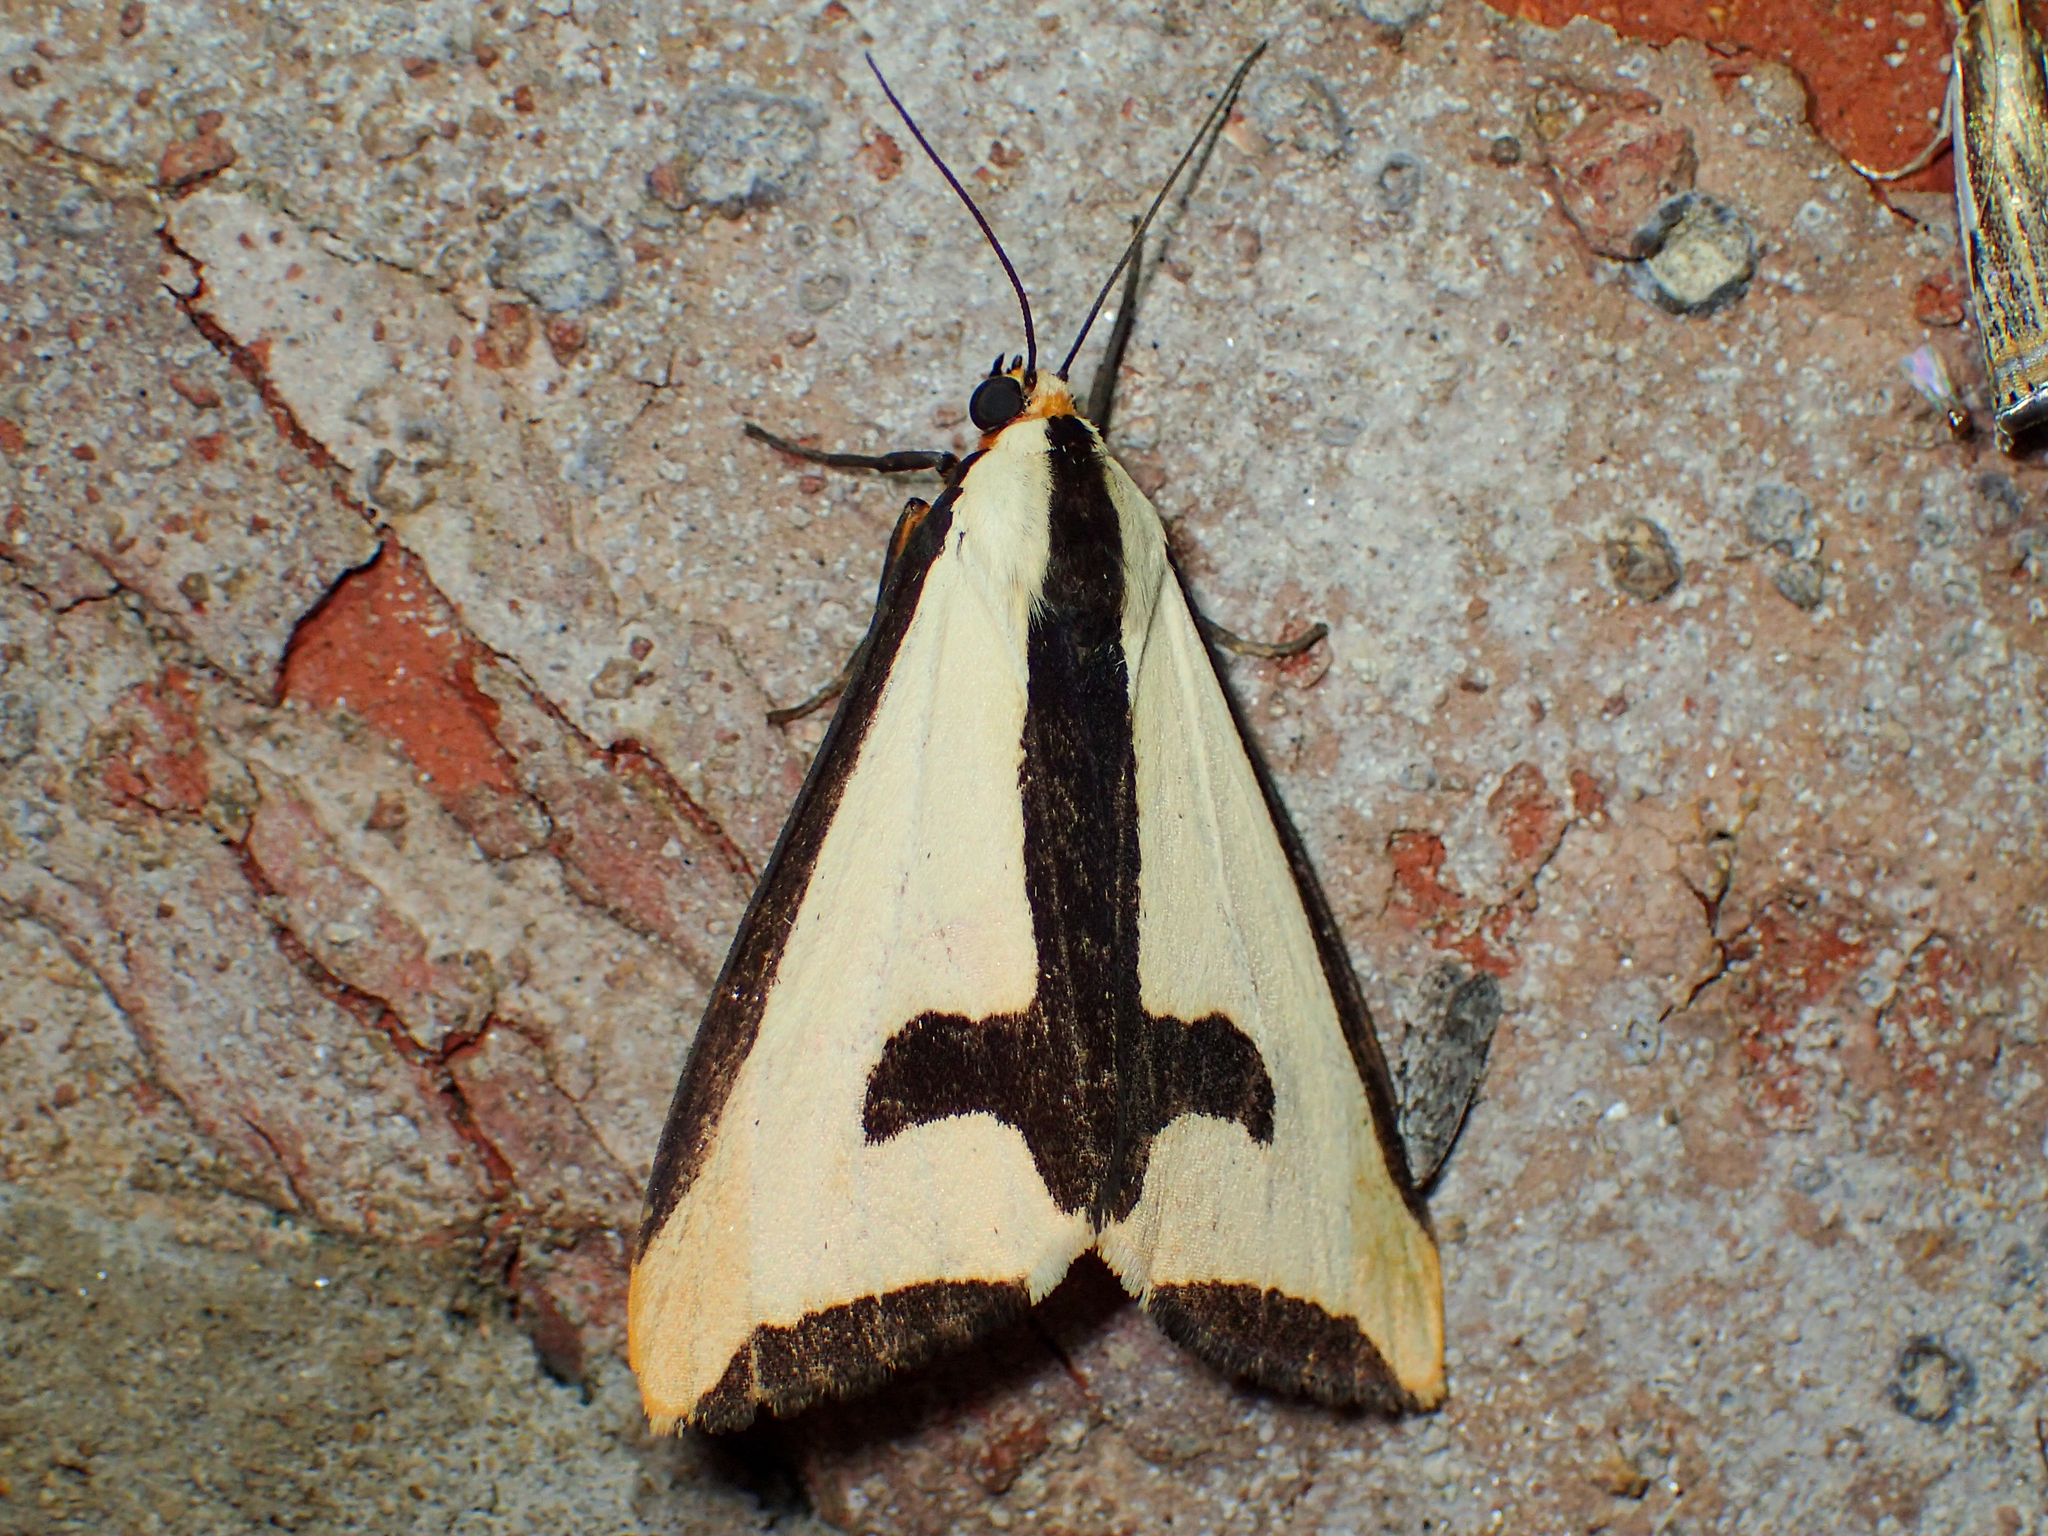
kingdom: Animalia
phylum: Arthropoda
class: Insecta
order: Lepidoptera
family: Erebidae
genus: Haploa
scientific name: Haploa clymene
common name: Clymene moth
